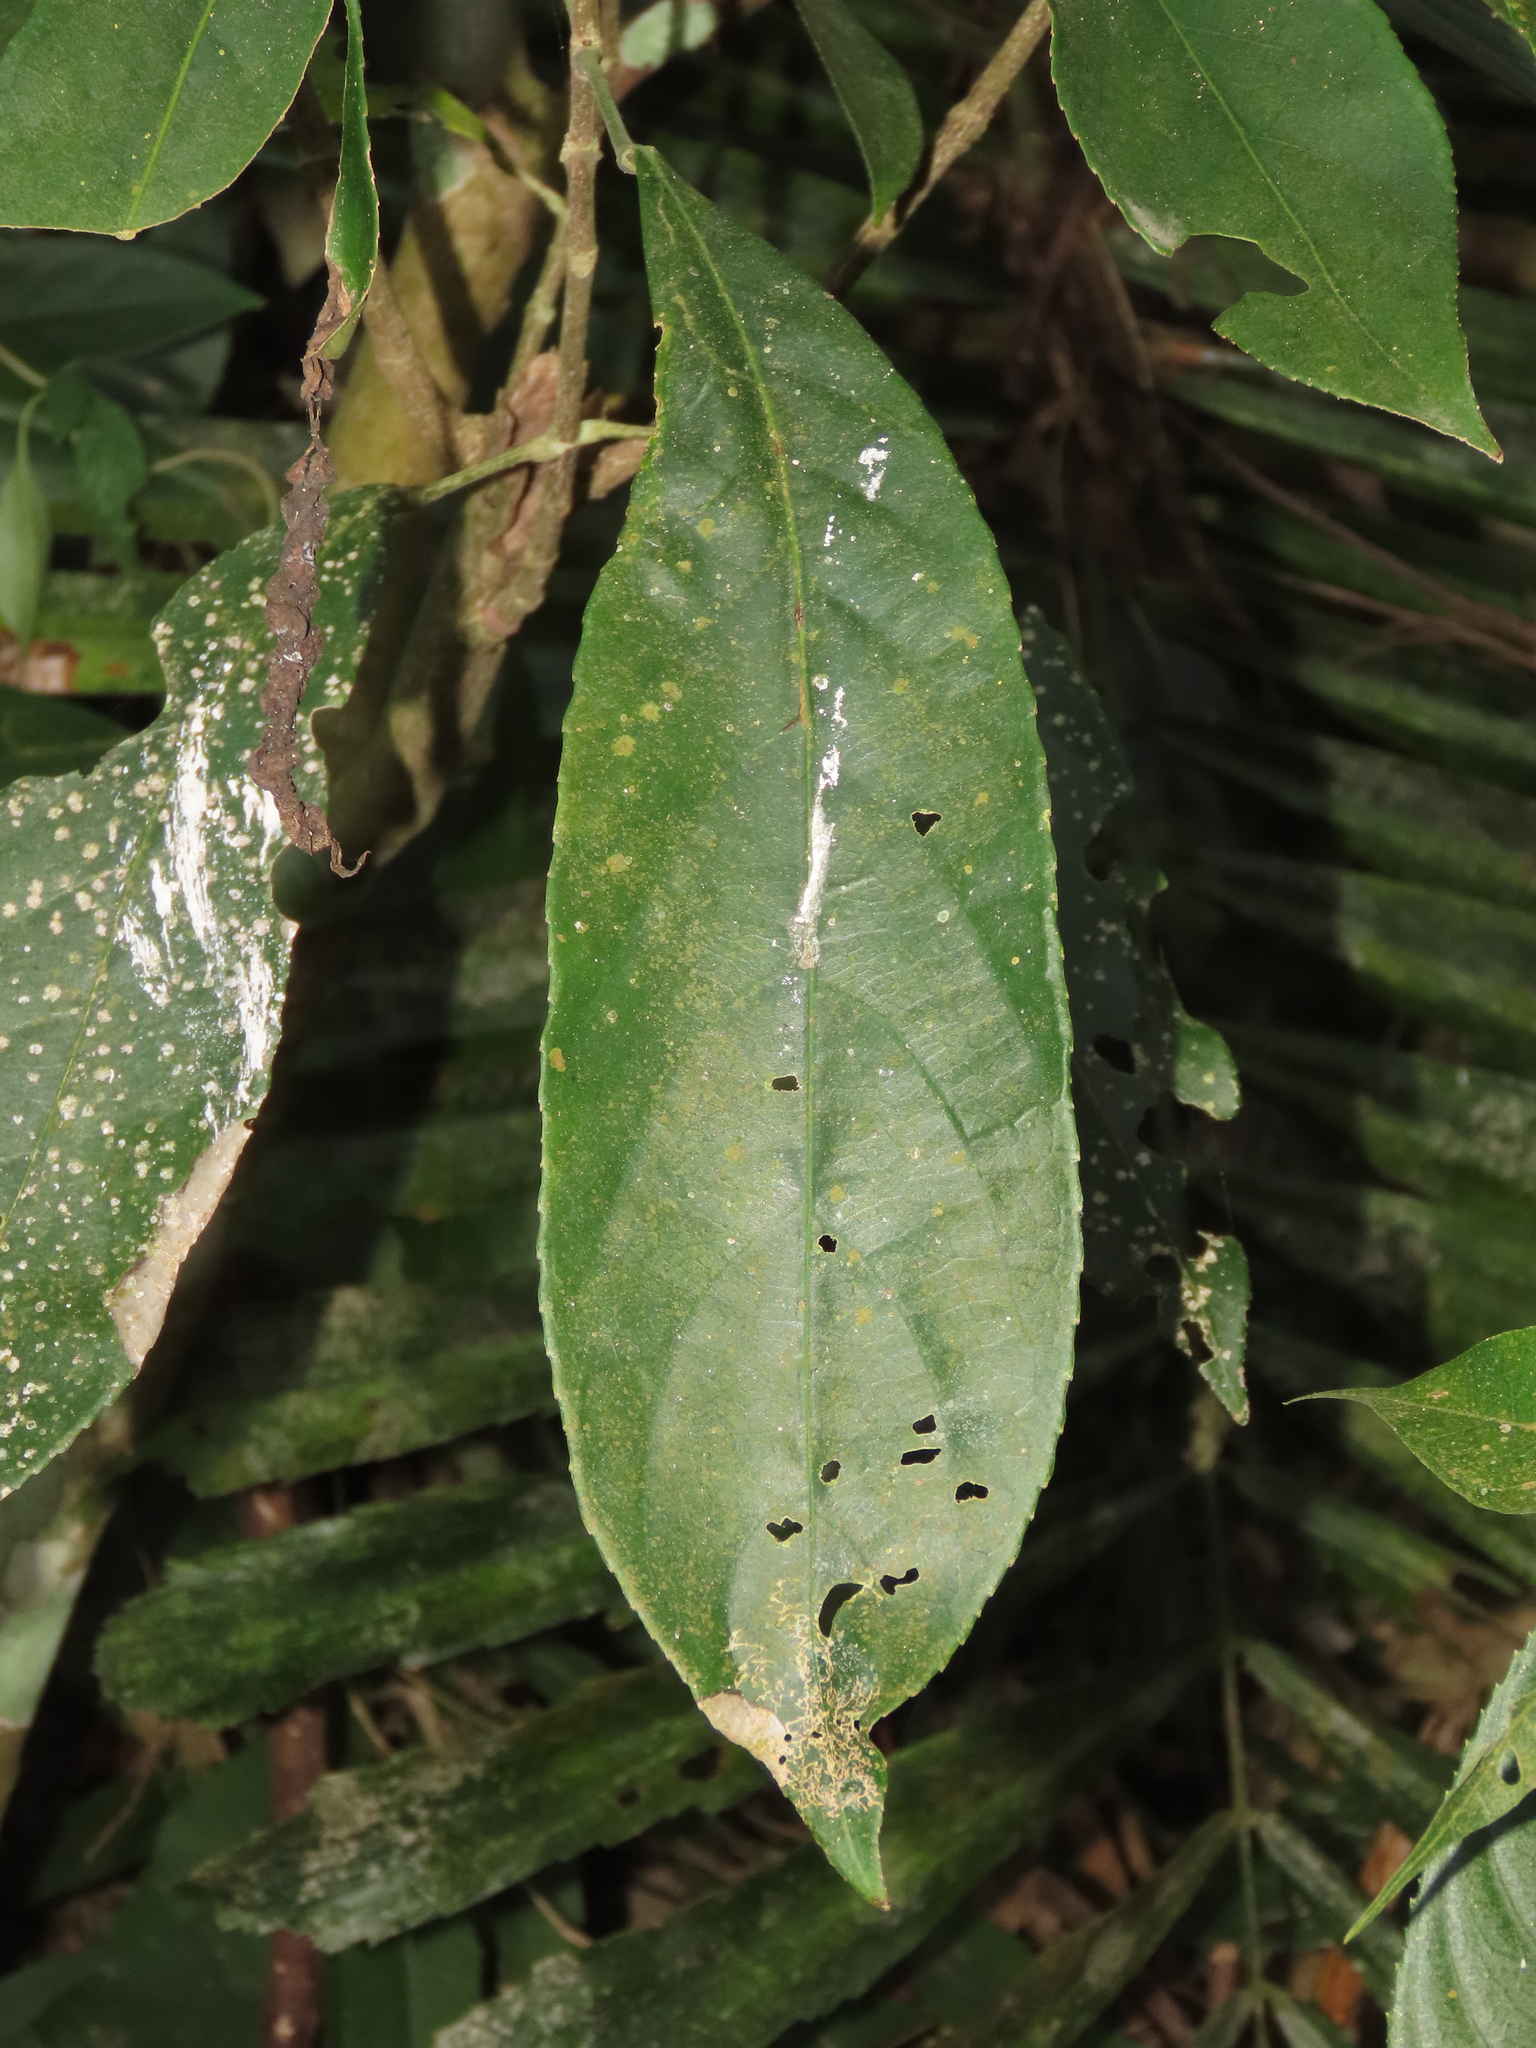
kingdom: Plantae
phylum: Tracheophyta
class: Magnoliopsida
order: Crossosomatales
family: Staphyleaceae
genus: Turpinia
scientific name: Turpinia formosana
